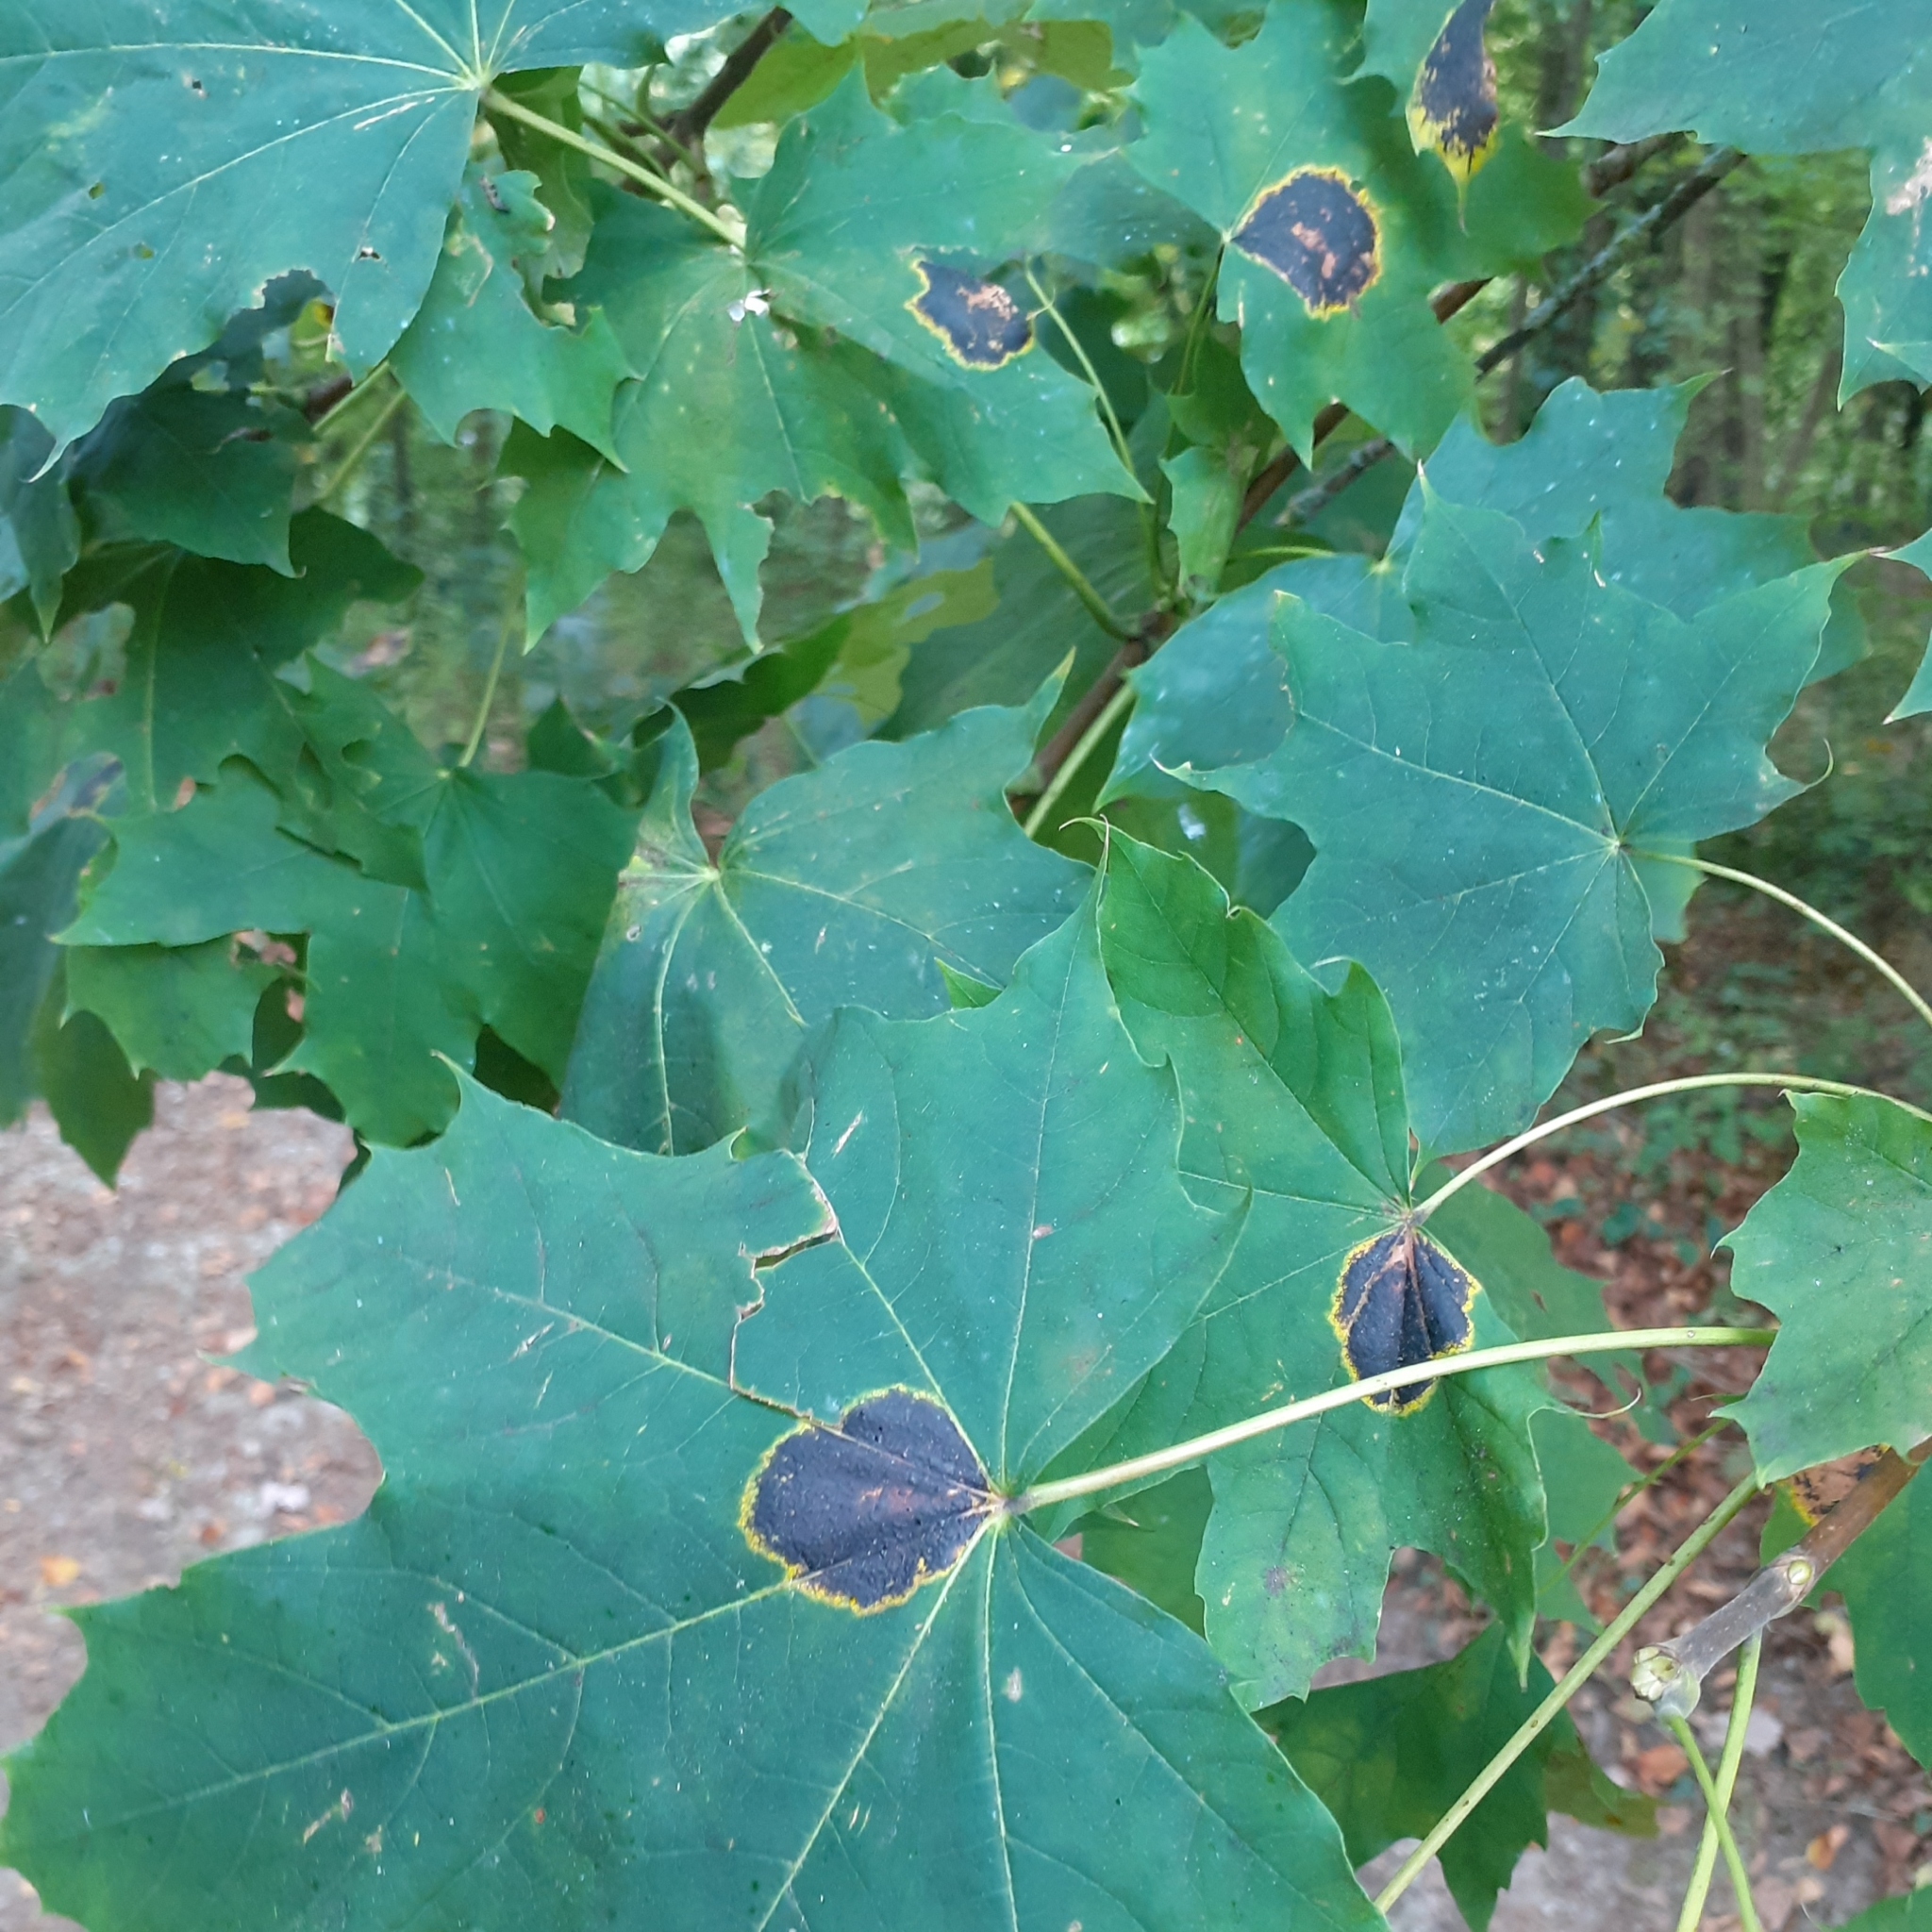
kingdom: Fungi
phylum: Ascomycota
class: Leotiomycetes
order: Rhytismatales
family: Rhytismataceae
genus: Rhytisma
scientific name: Rhytisma acerinum
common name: European tar spot
